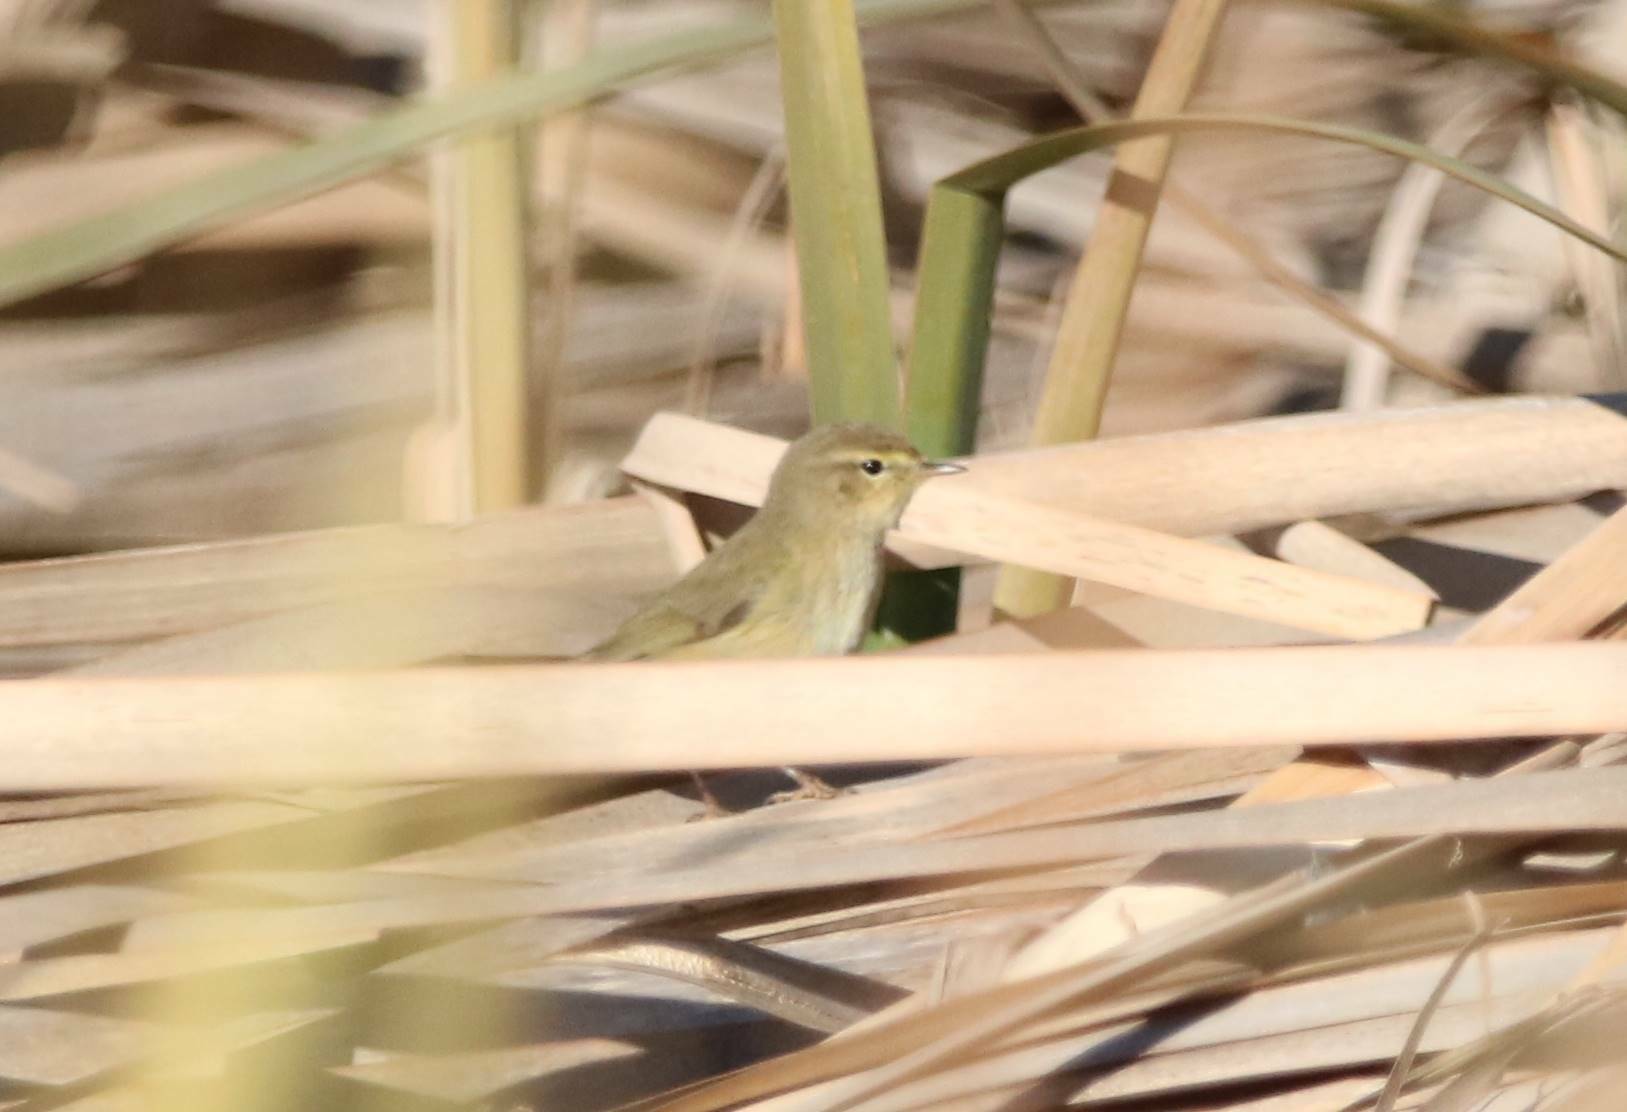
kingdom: Animalia
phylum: Chordata
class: Aves
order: Passeriformes
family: Phylloscopidae
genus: Phylloscopus
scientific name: Phylloscopus collybita
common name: Common chiffchaff
